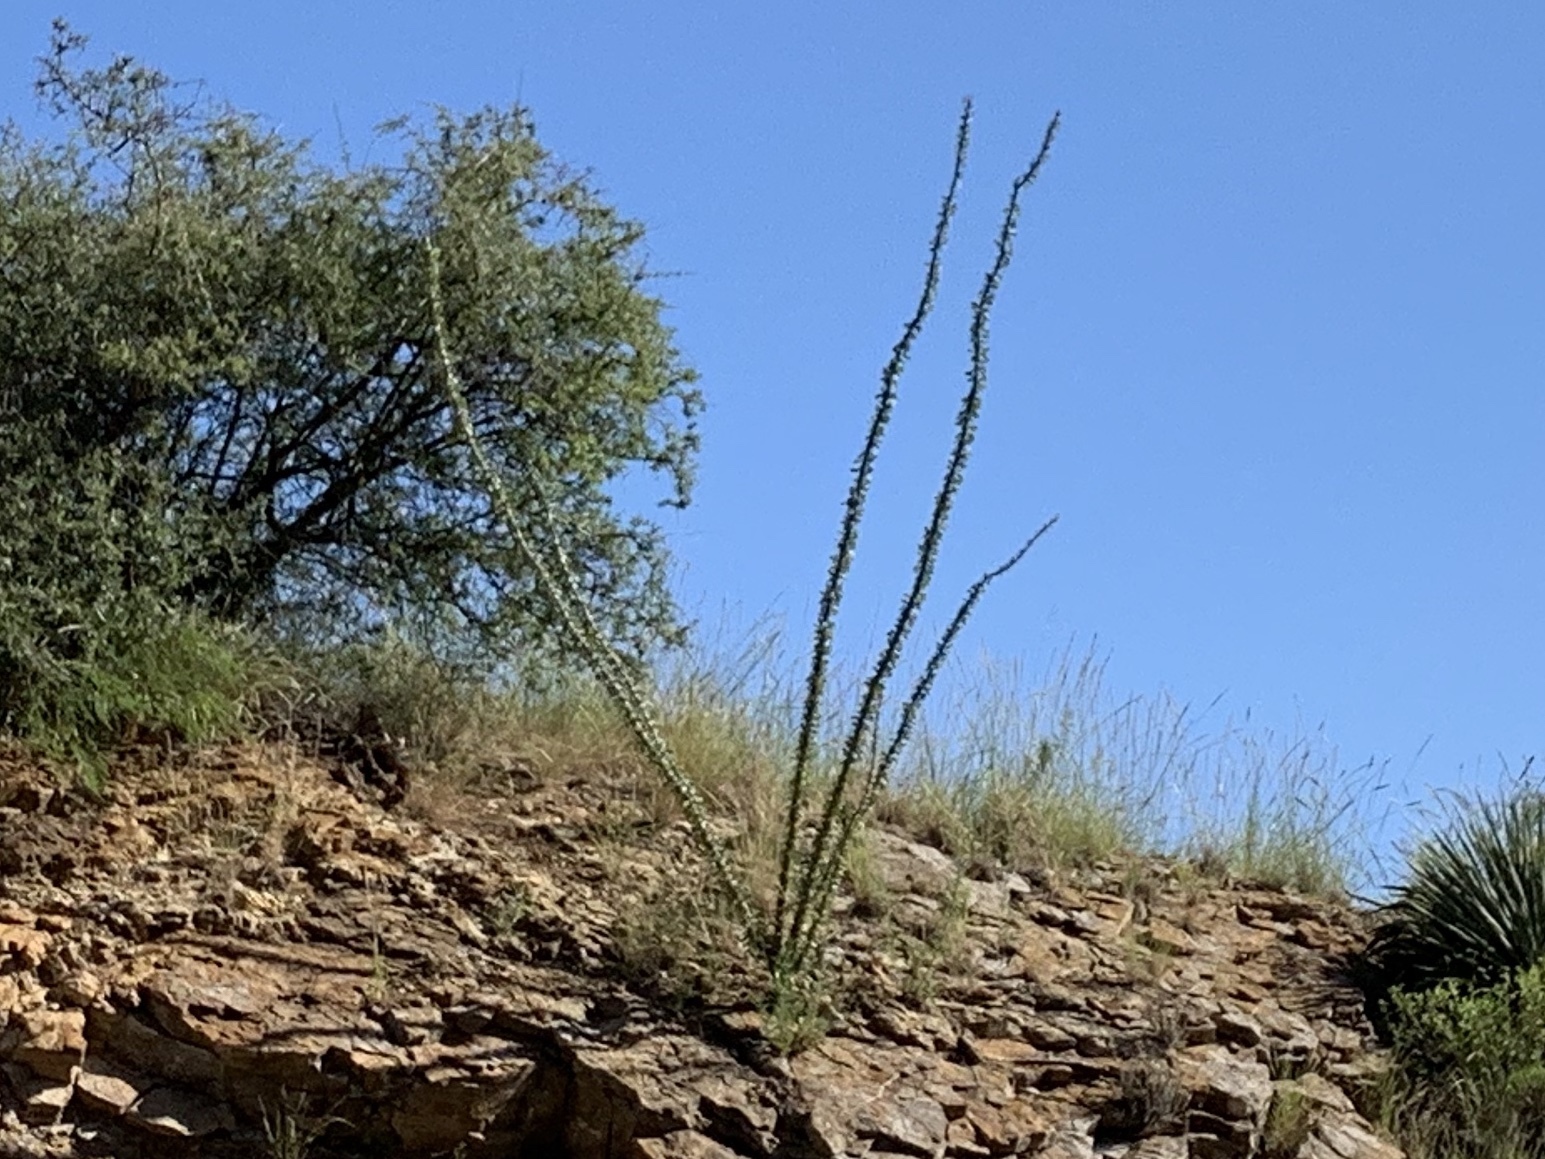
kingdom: Plantae
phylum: Tracheophyta
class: Magnoliopsida
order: Ericales
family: Fouquieriaceae
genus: Fouquieria
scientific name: Fouquieria splendens
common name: Vine-cactus
